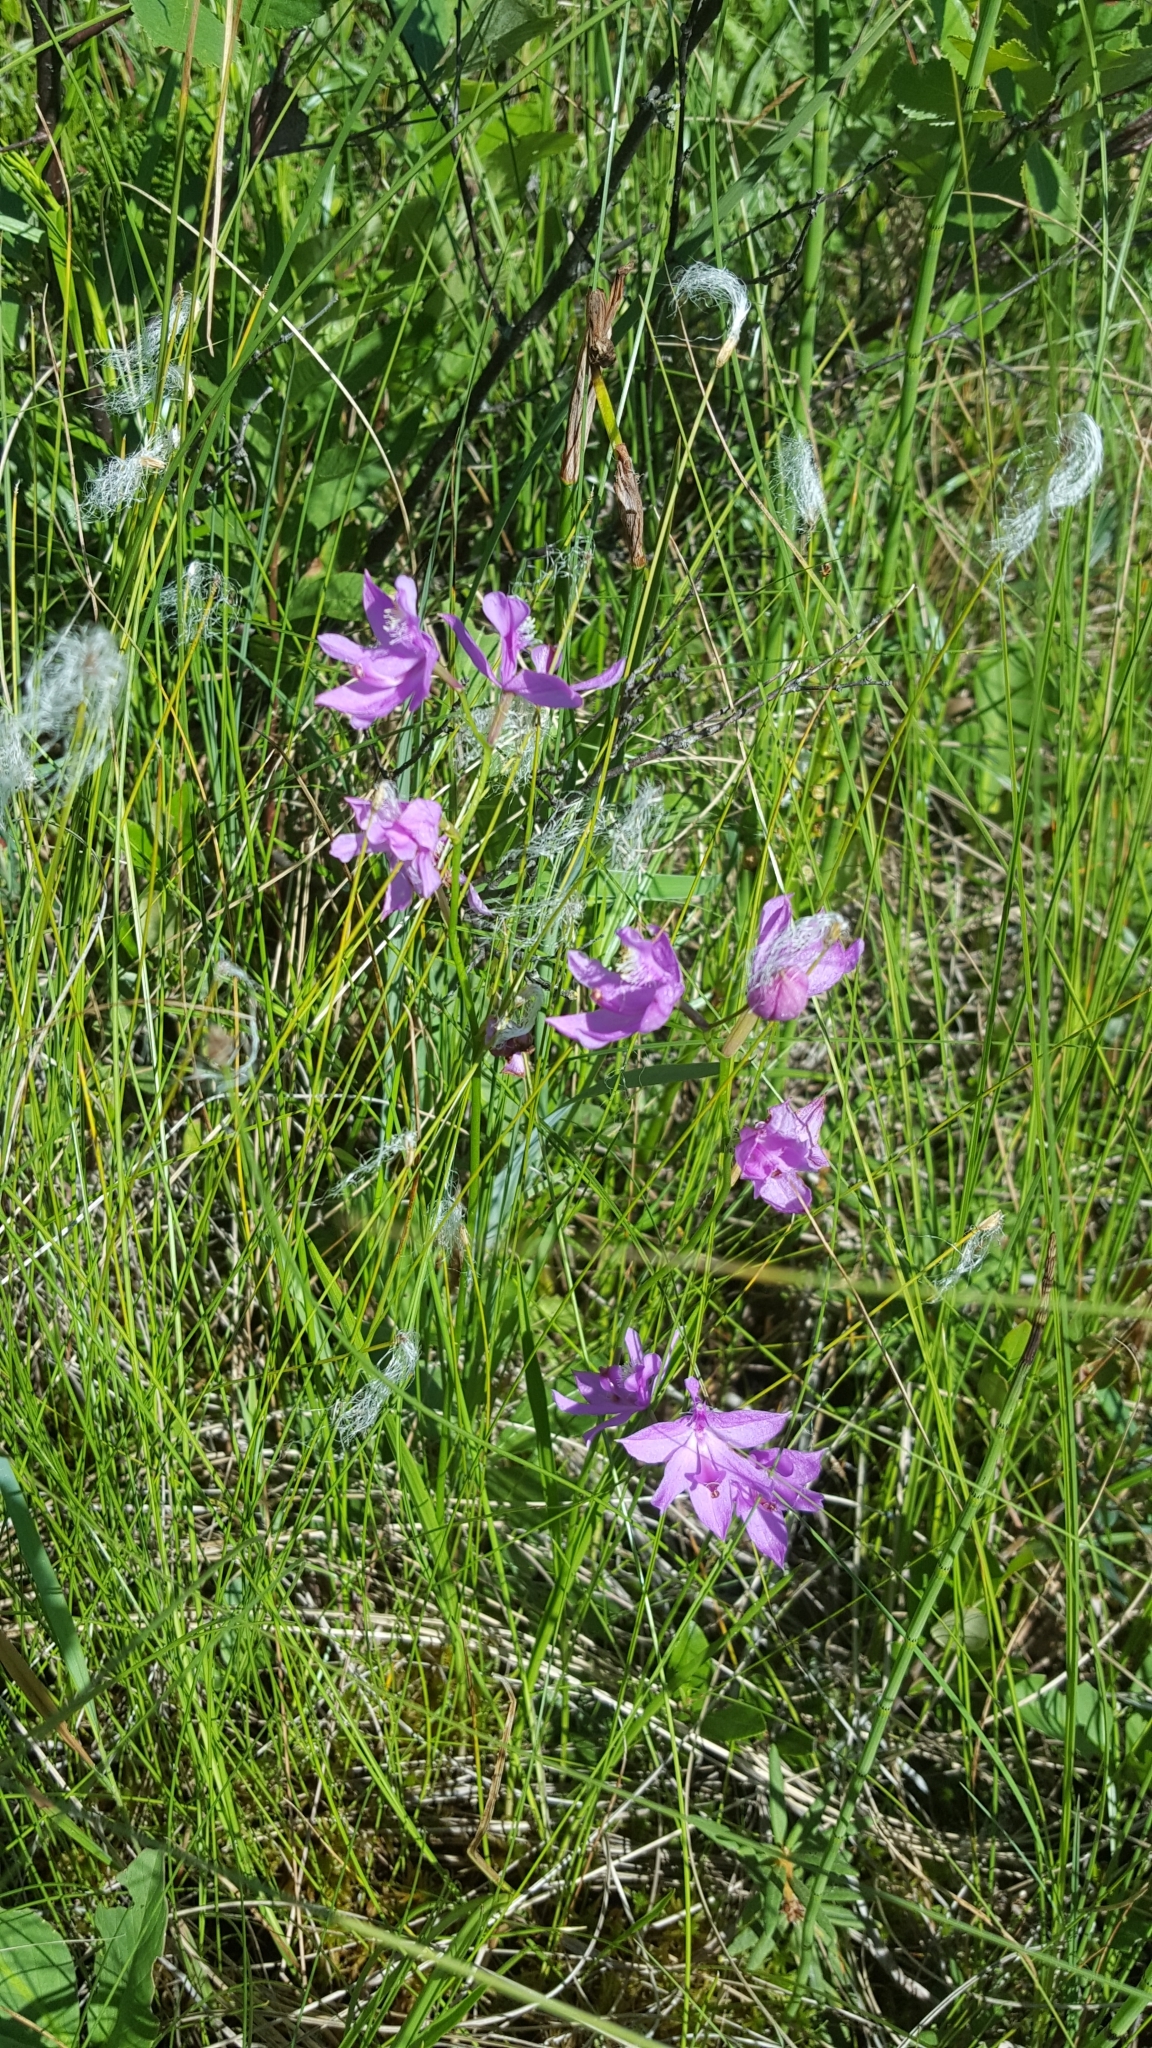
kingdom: Plantae
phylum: Tracheophyta
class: Liliopsida
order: Asparagales
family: Orchidaceae
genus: Calopogon
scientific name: Calopogon tuberosus
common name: Grass-pink
